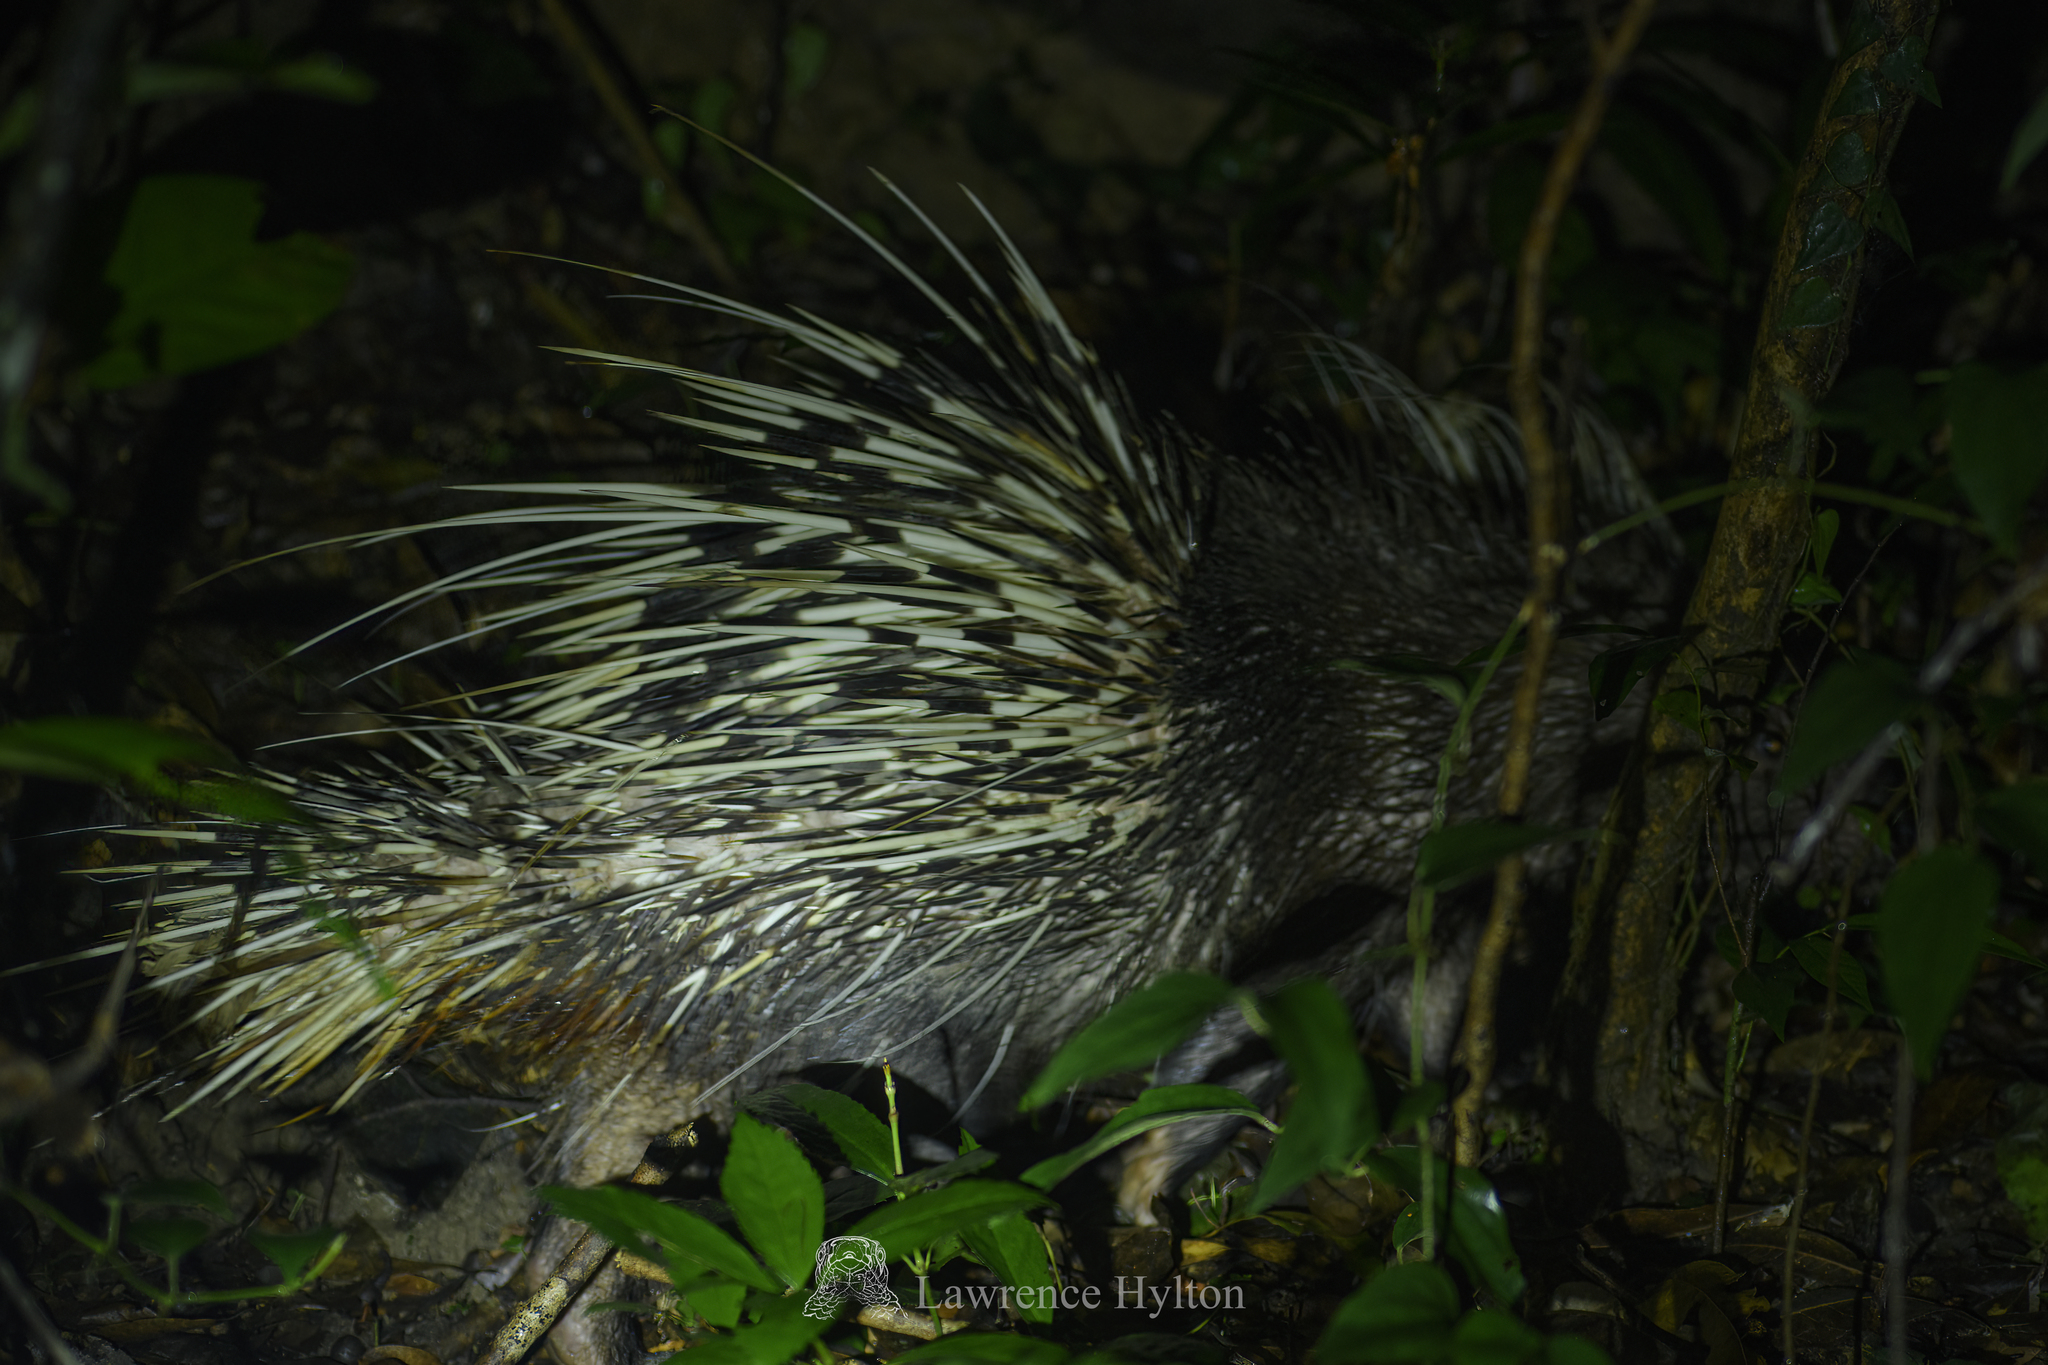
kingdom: Animalia
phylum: Chordata
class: Mammalia
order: Rodentia
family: Hystricidae
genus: Hystrix
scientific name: Hystrix brachyura
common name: Malayan porcupine
